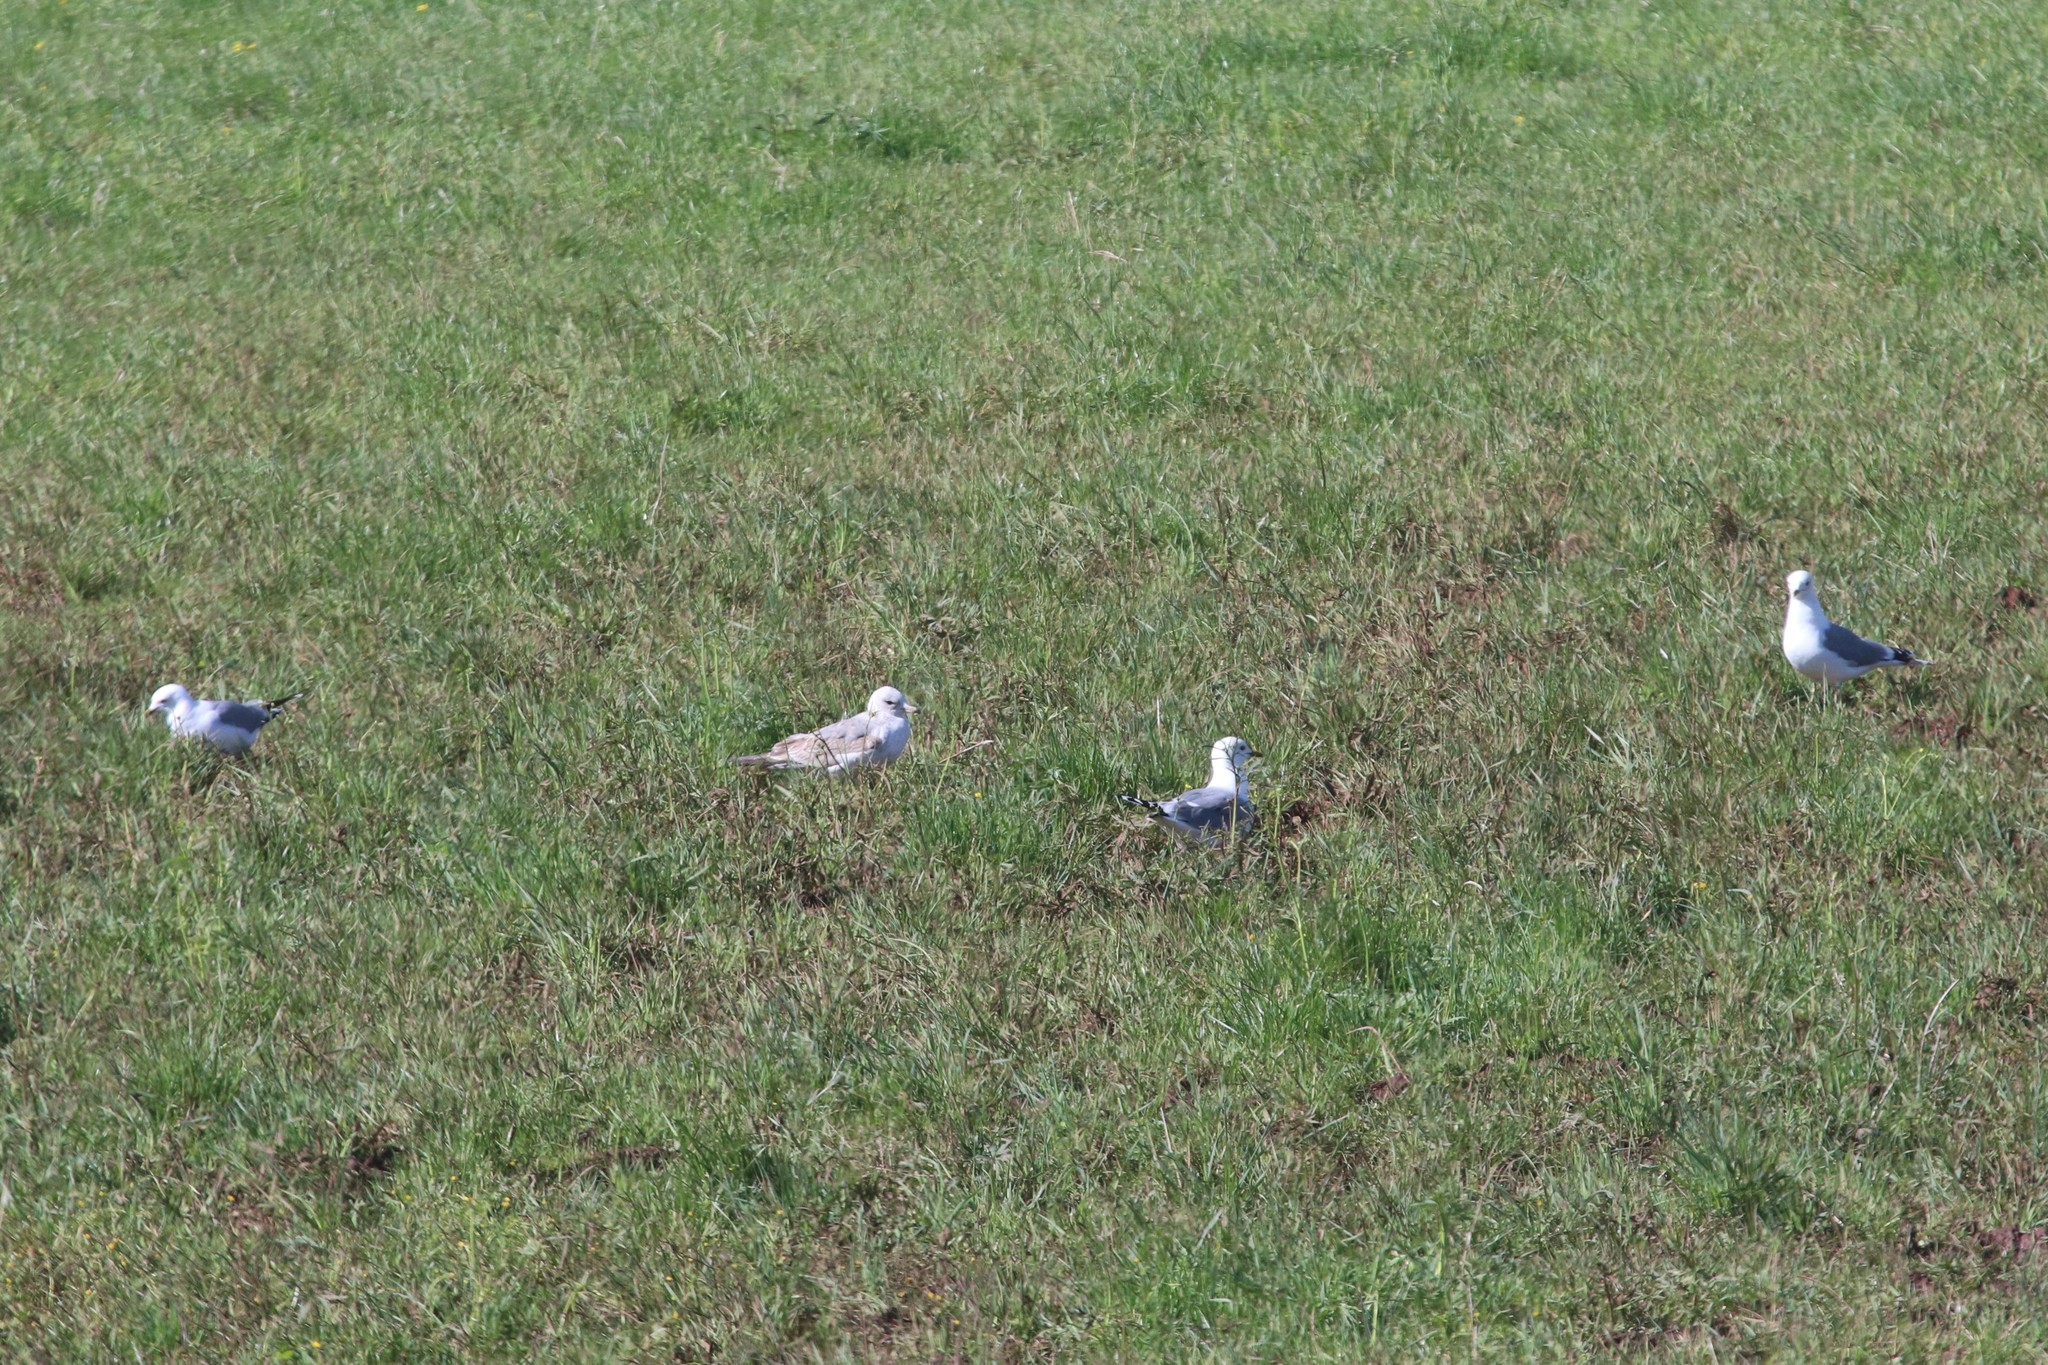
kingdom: Animalia
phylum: Chordata
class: Aves
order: Charadriiformes
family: Laridae
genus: Larus
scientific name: Larus canus
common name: Mew gull
